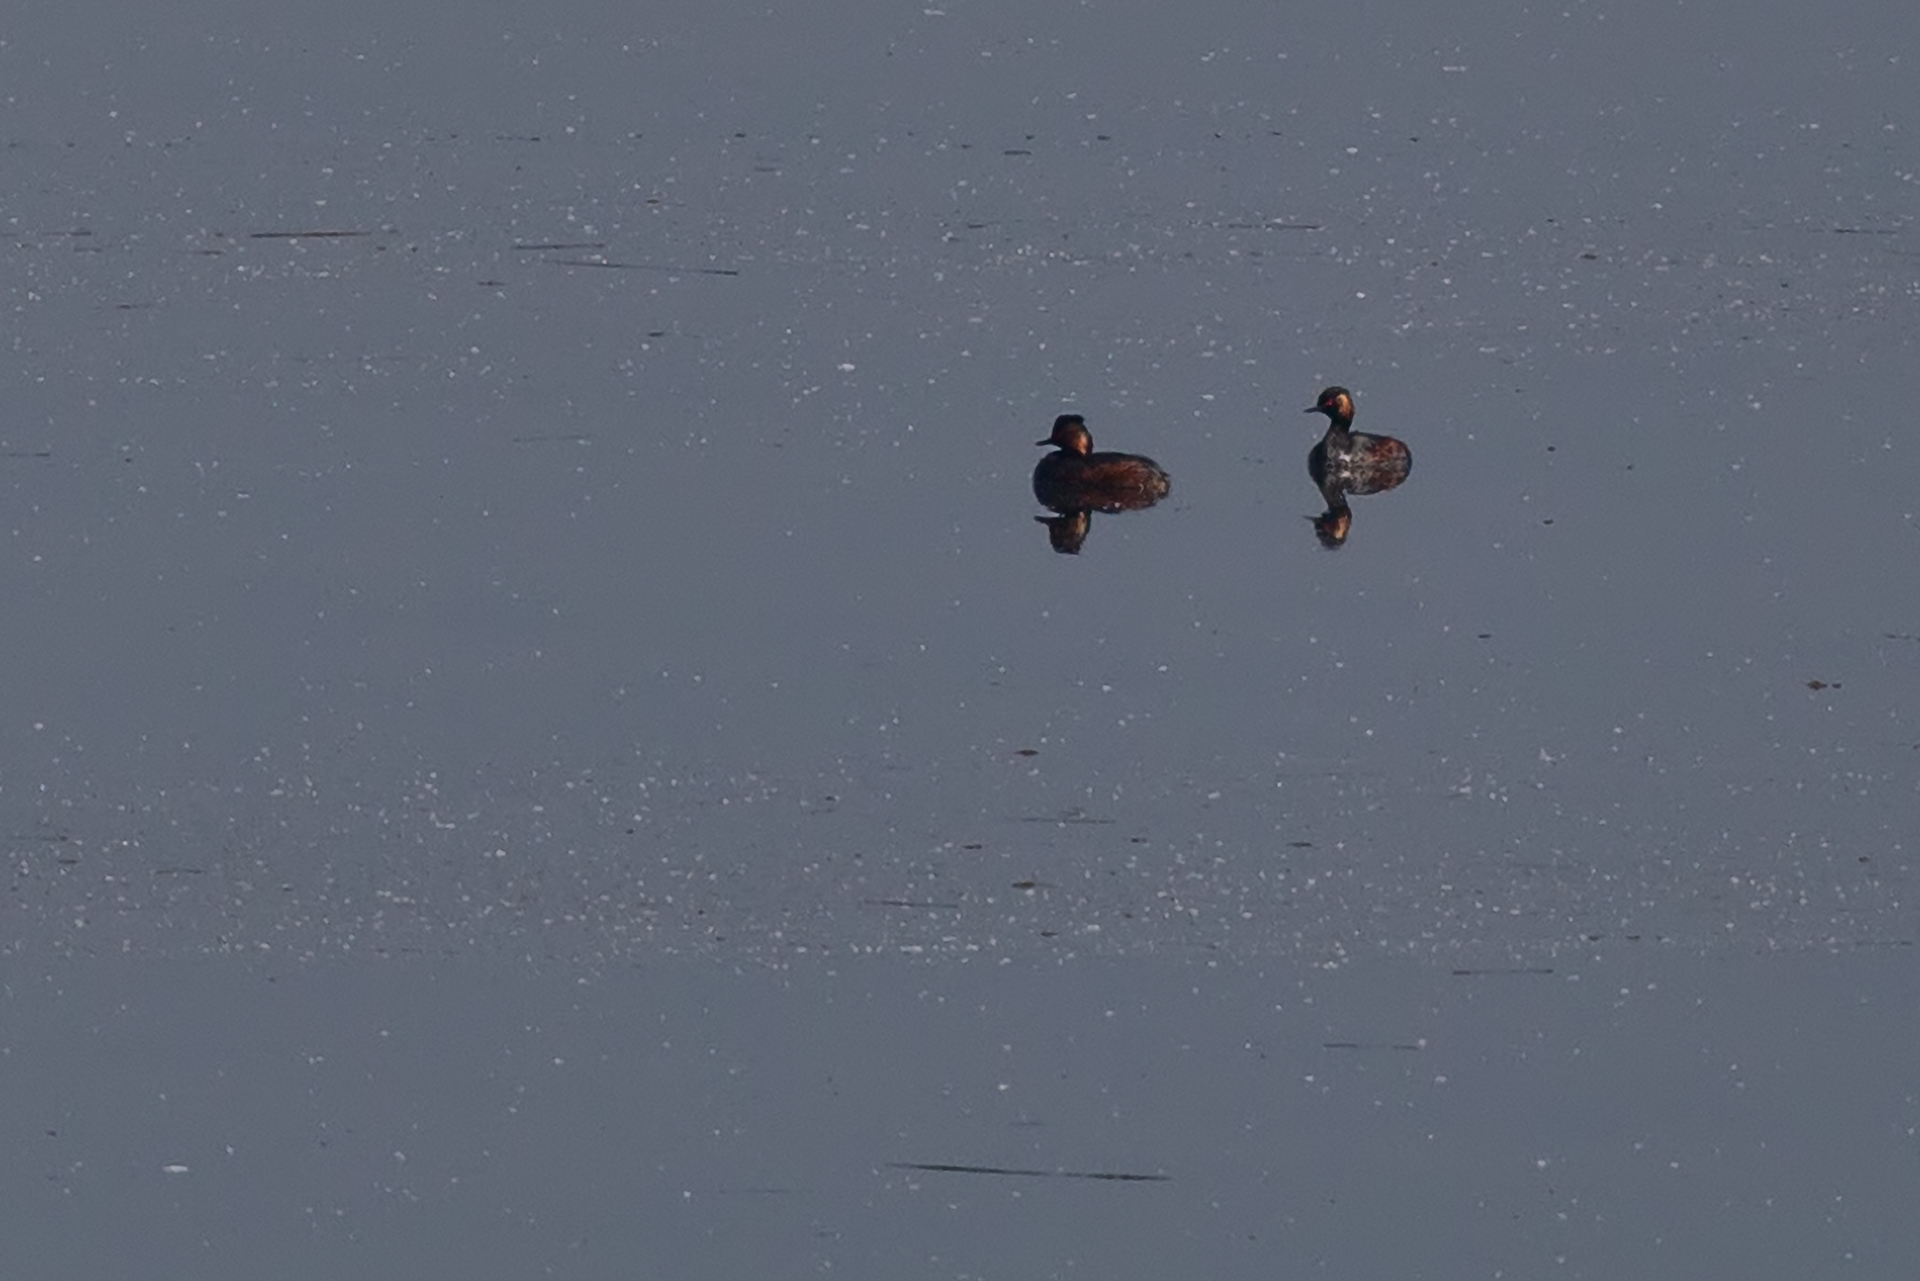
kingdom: Animalia
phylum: Chordata
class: Aves
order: Podicipediformes
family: Podicipedidae
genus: Podiceps
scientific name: Podiceps nigricollis
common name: Black-necked grebe
